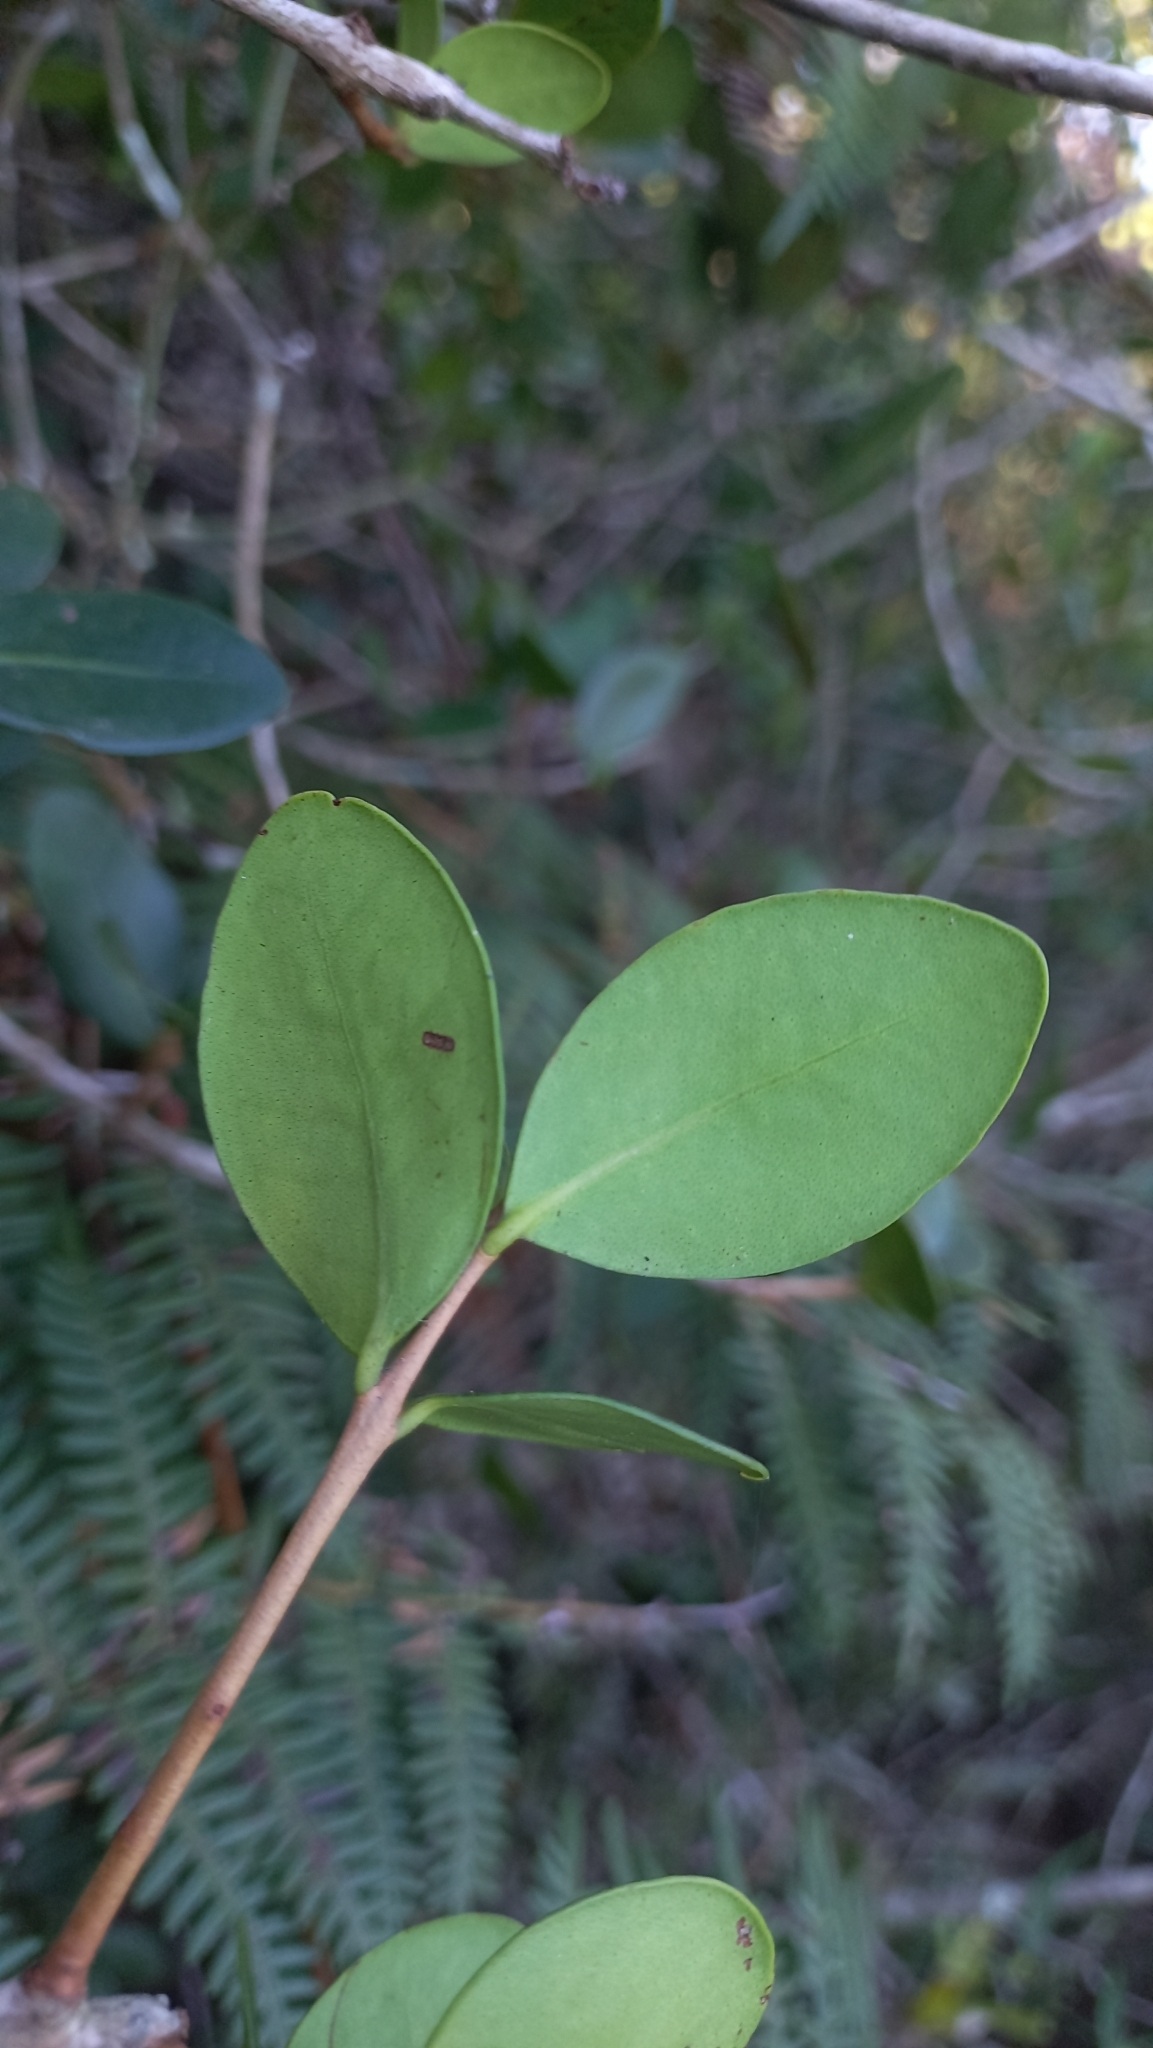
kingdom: Plantae
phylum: Tracheophyta
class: Magnoliopsida
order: Myrtales
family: Myrtaceae
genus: Eugenia
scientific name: Eugenia catharinae
